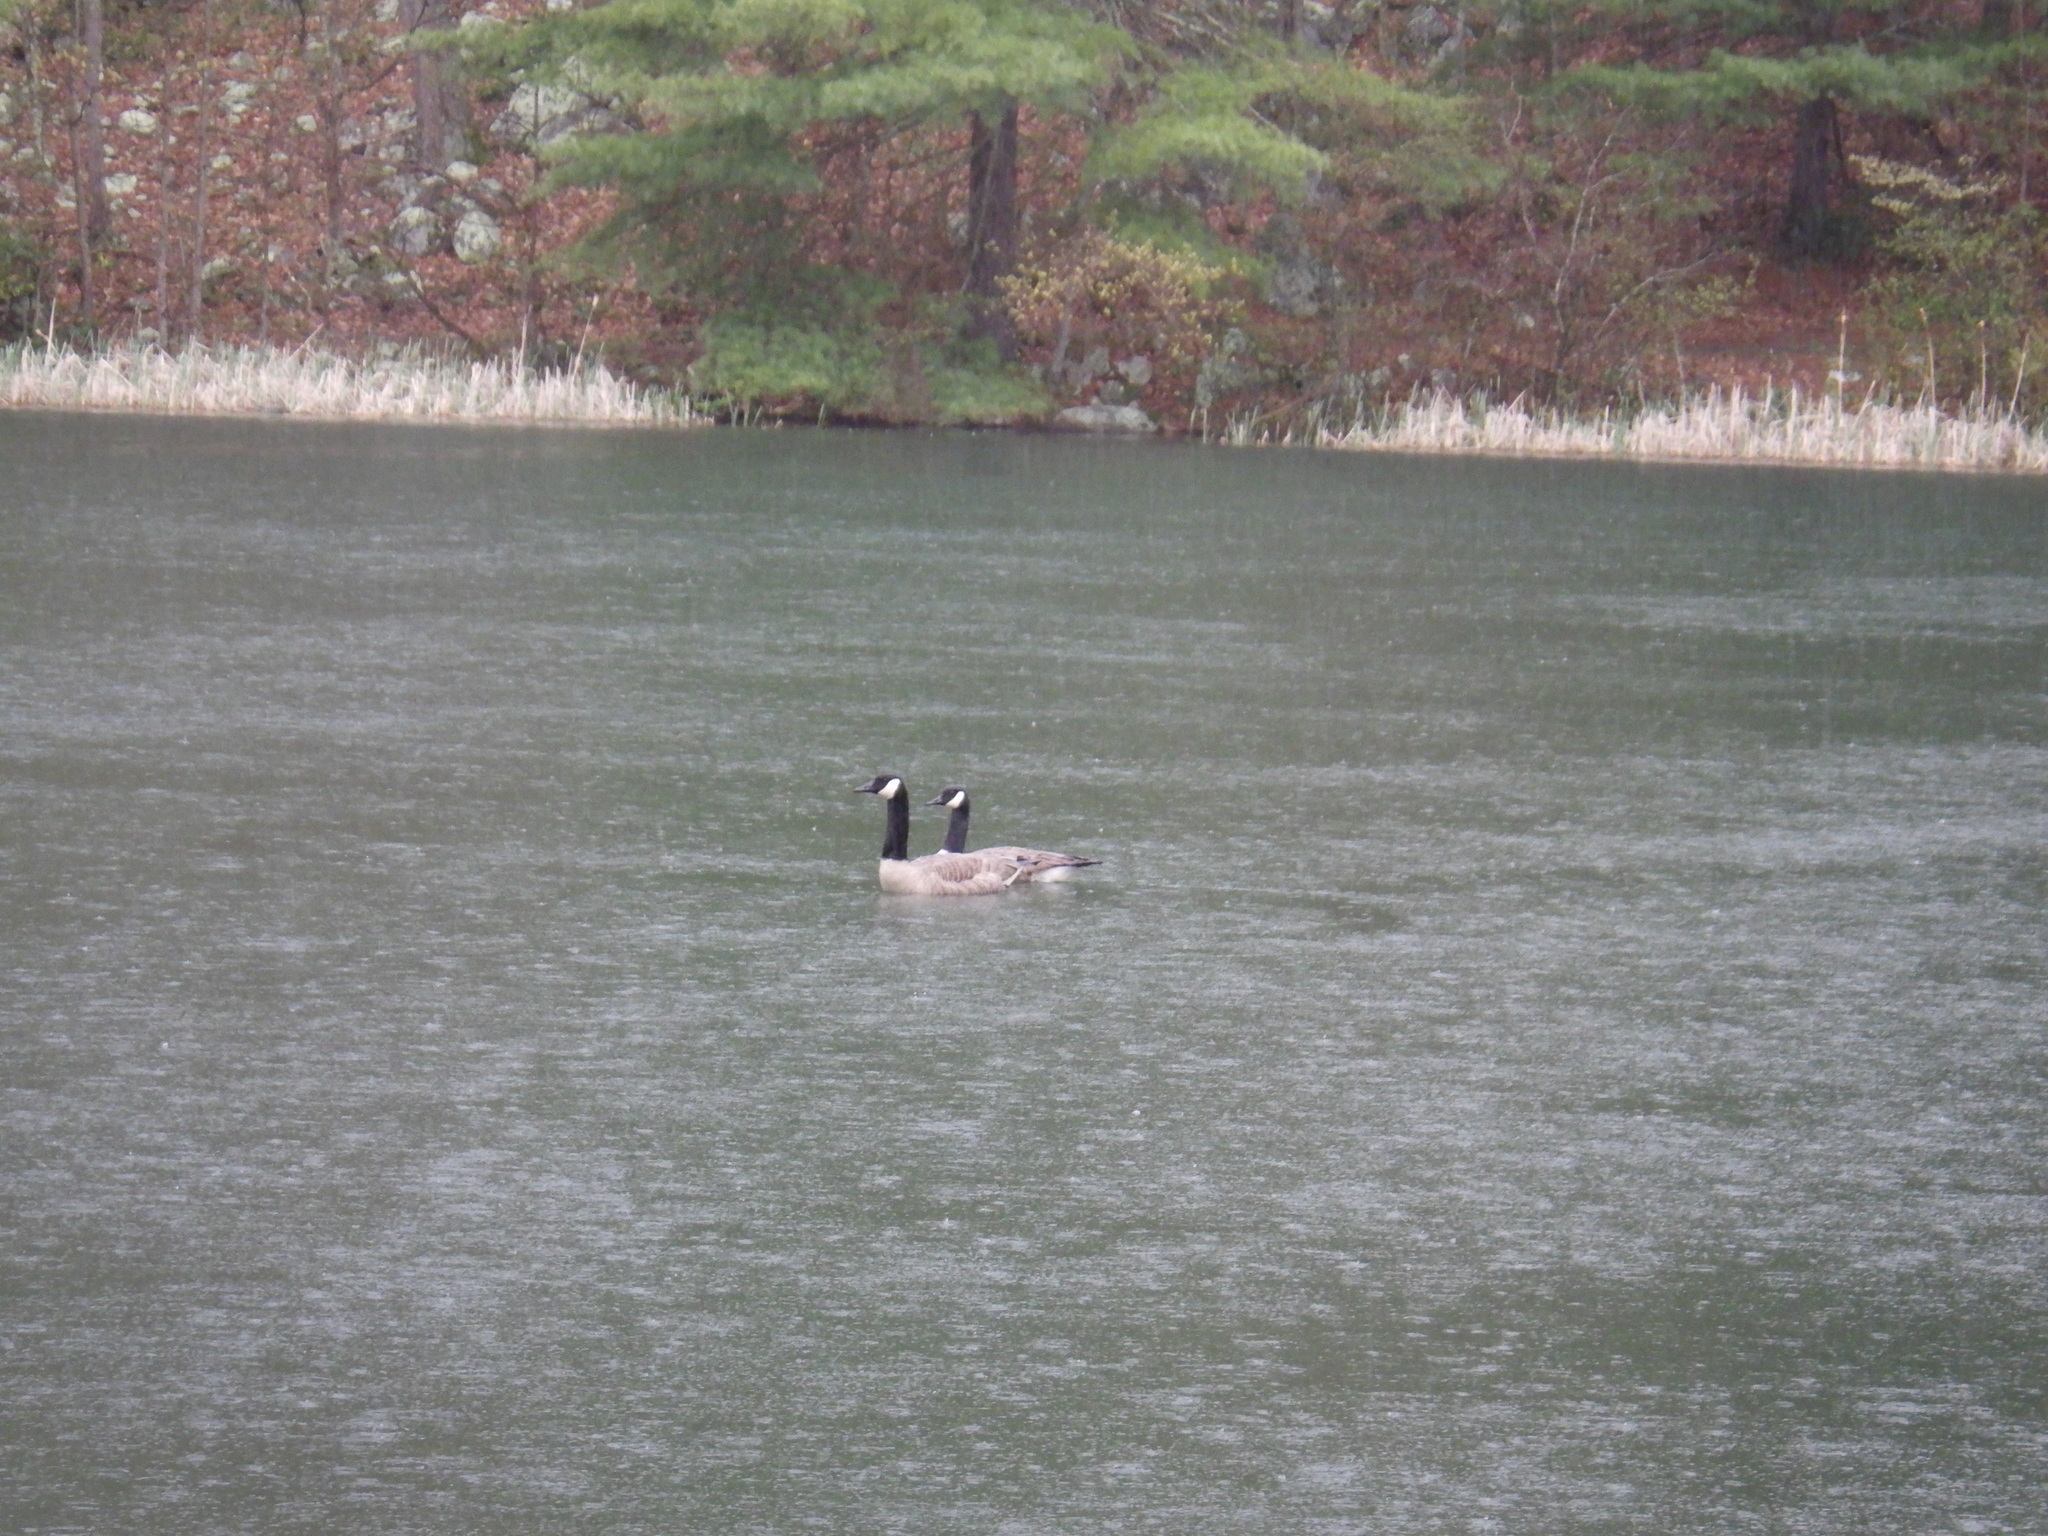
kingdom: Animalia
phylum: Chordata
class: Aves
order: Anseriformes
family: Anatidae
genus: Branta
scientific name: Branta canadensis
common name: Canada goose
